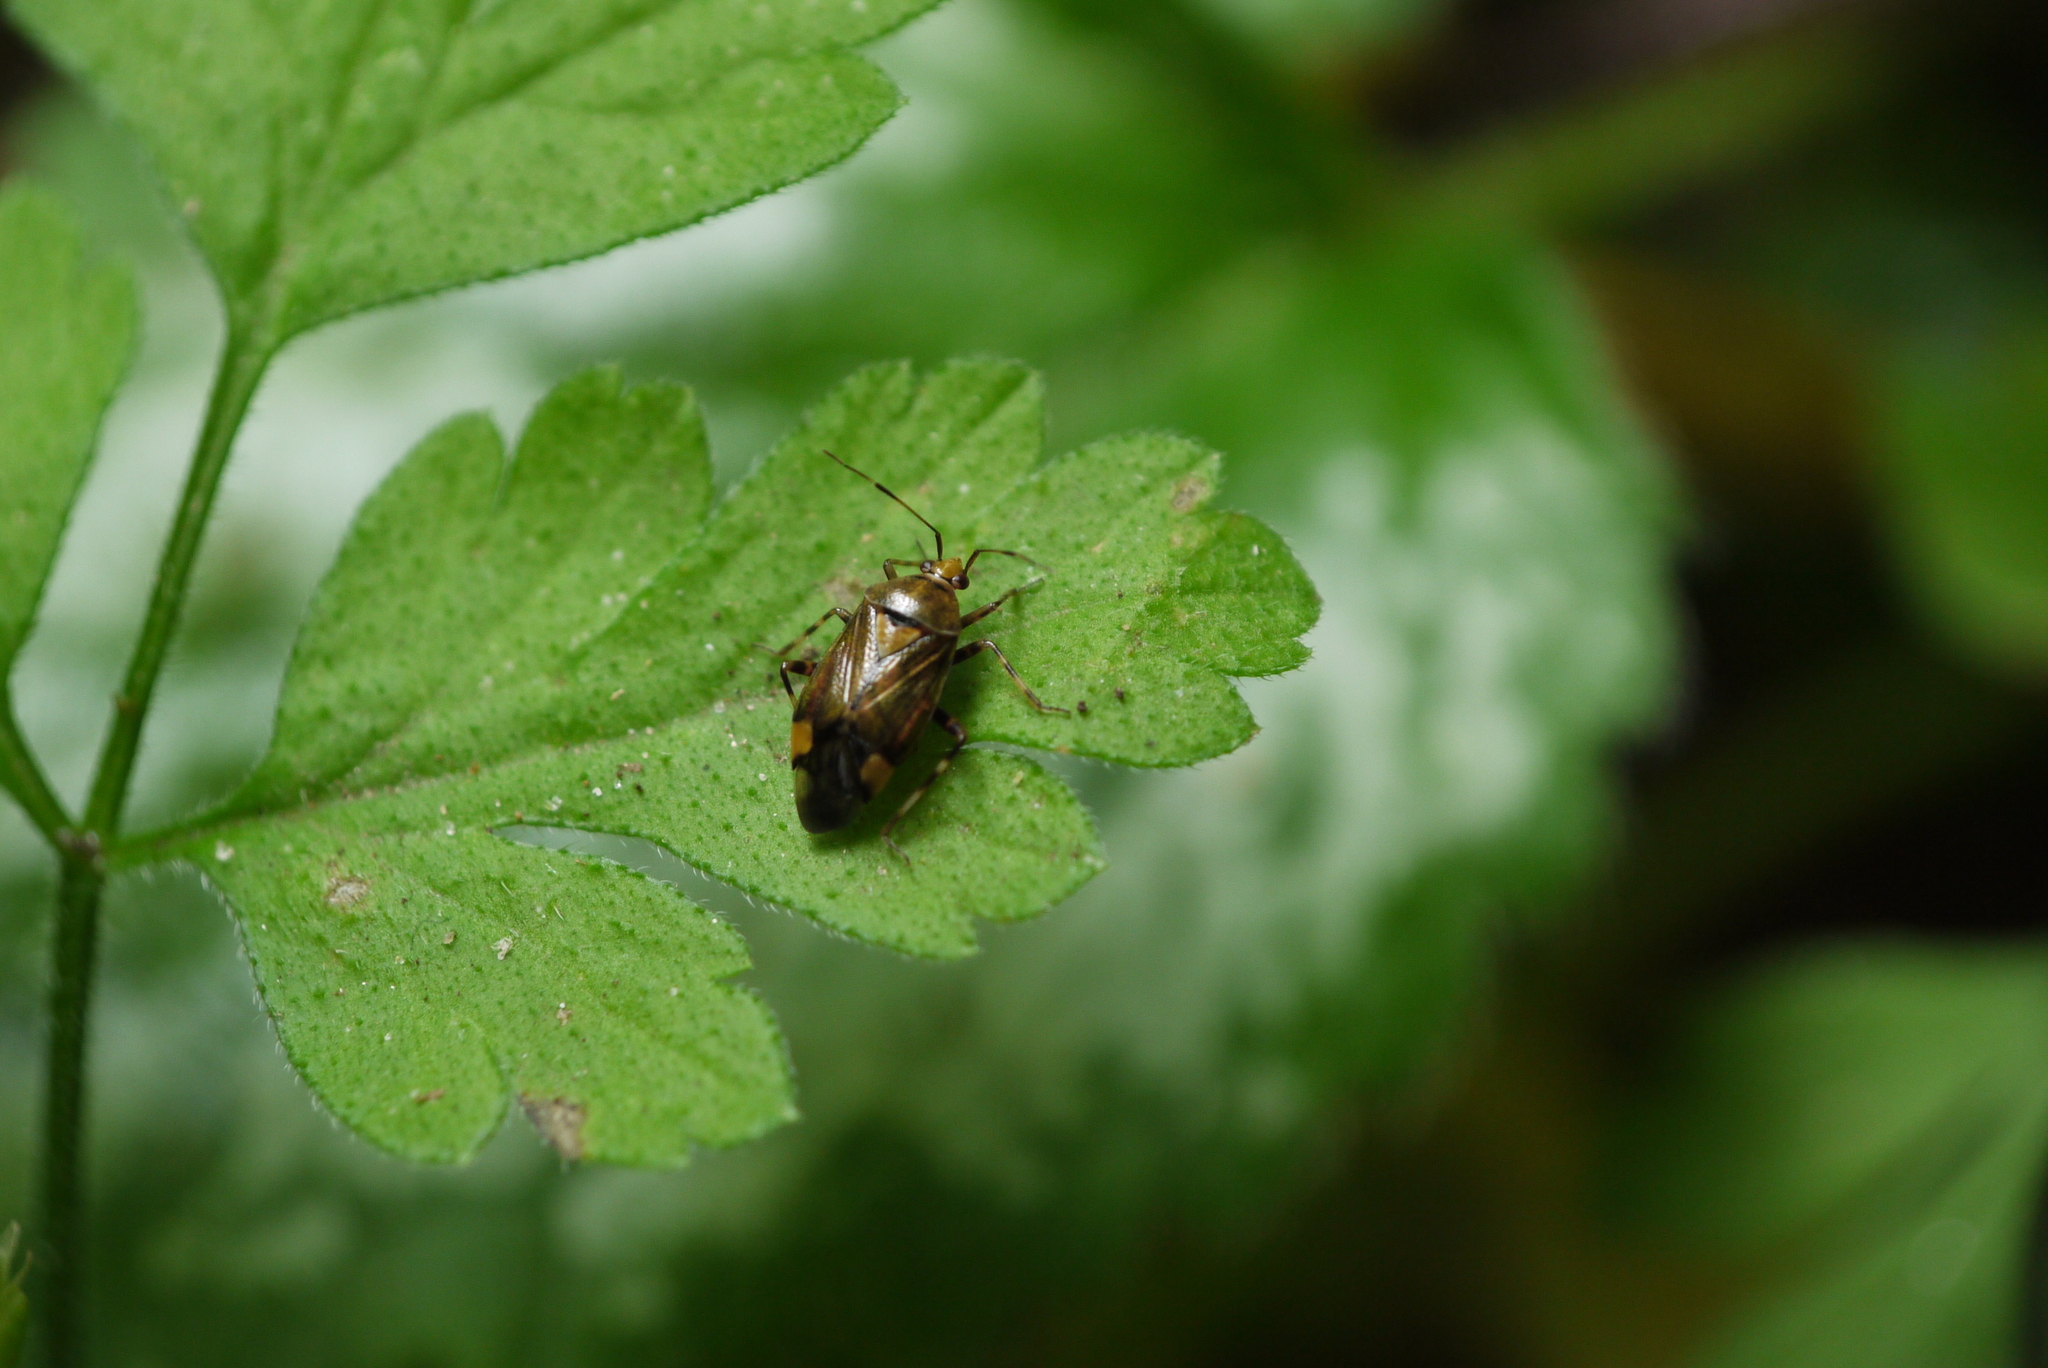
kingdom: Animalia
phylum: Arthropoda
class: Insecta
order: Hemiptera
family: Miridae
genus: Deraeocoris
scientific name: Deraeocoris flavilinea
